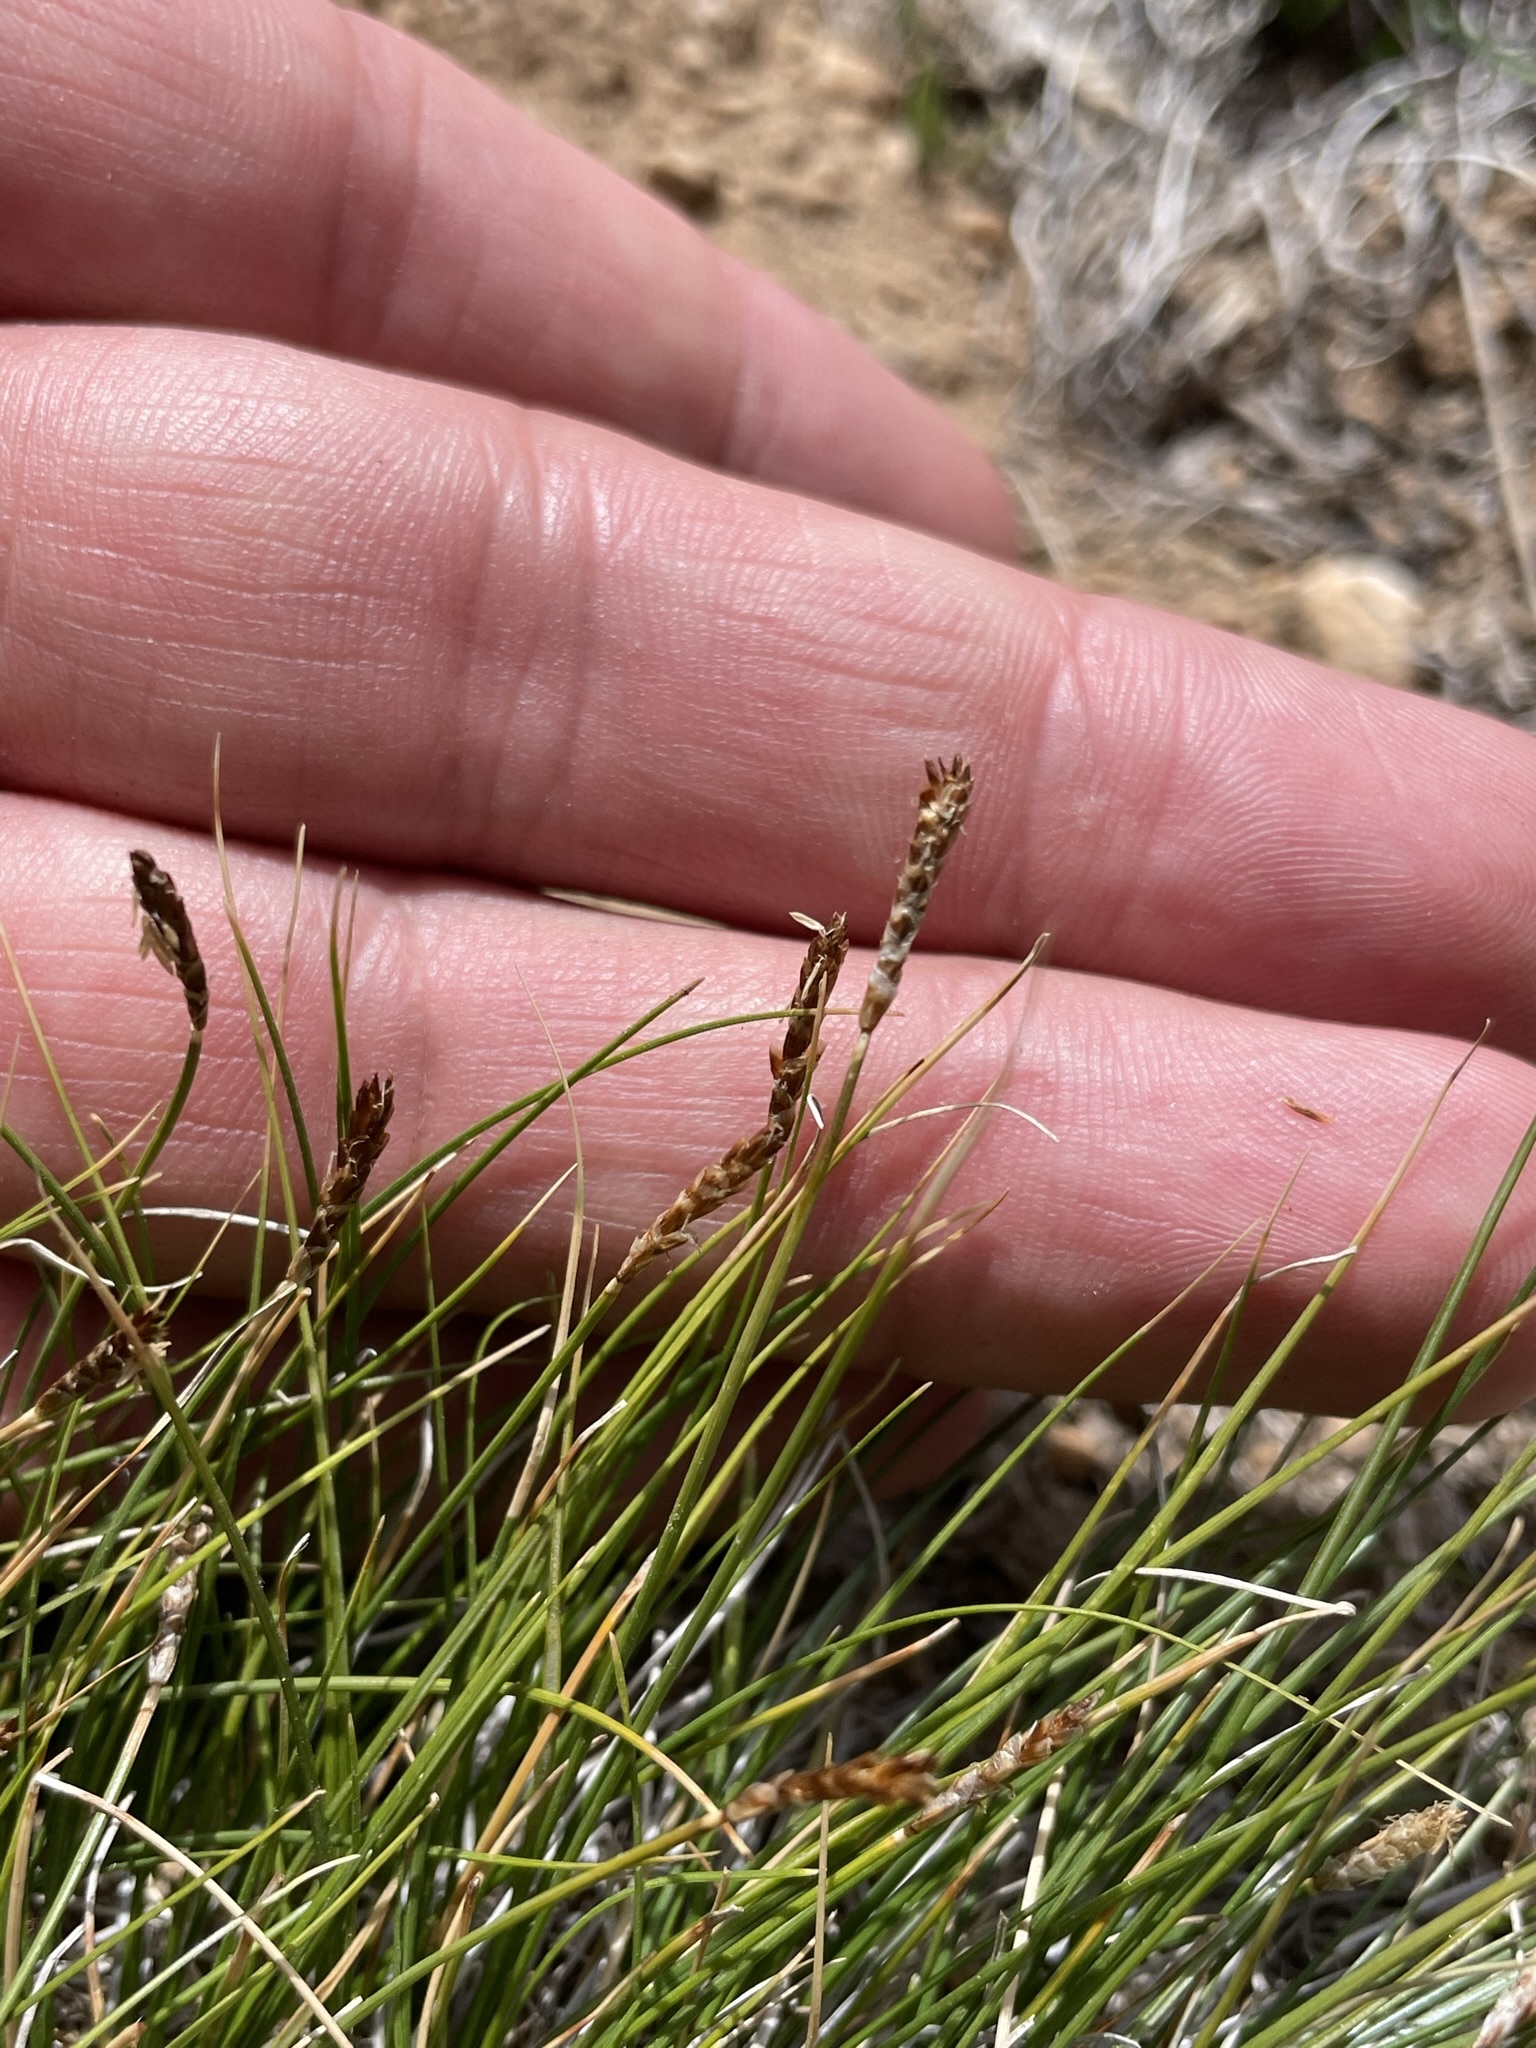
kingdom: Plantae
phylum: Tracheophyta
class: Liliopsida
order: Poales
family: Cyperaceae
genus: Carex
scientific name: Carex filifolia
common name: Threadleaf sedge
